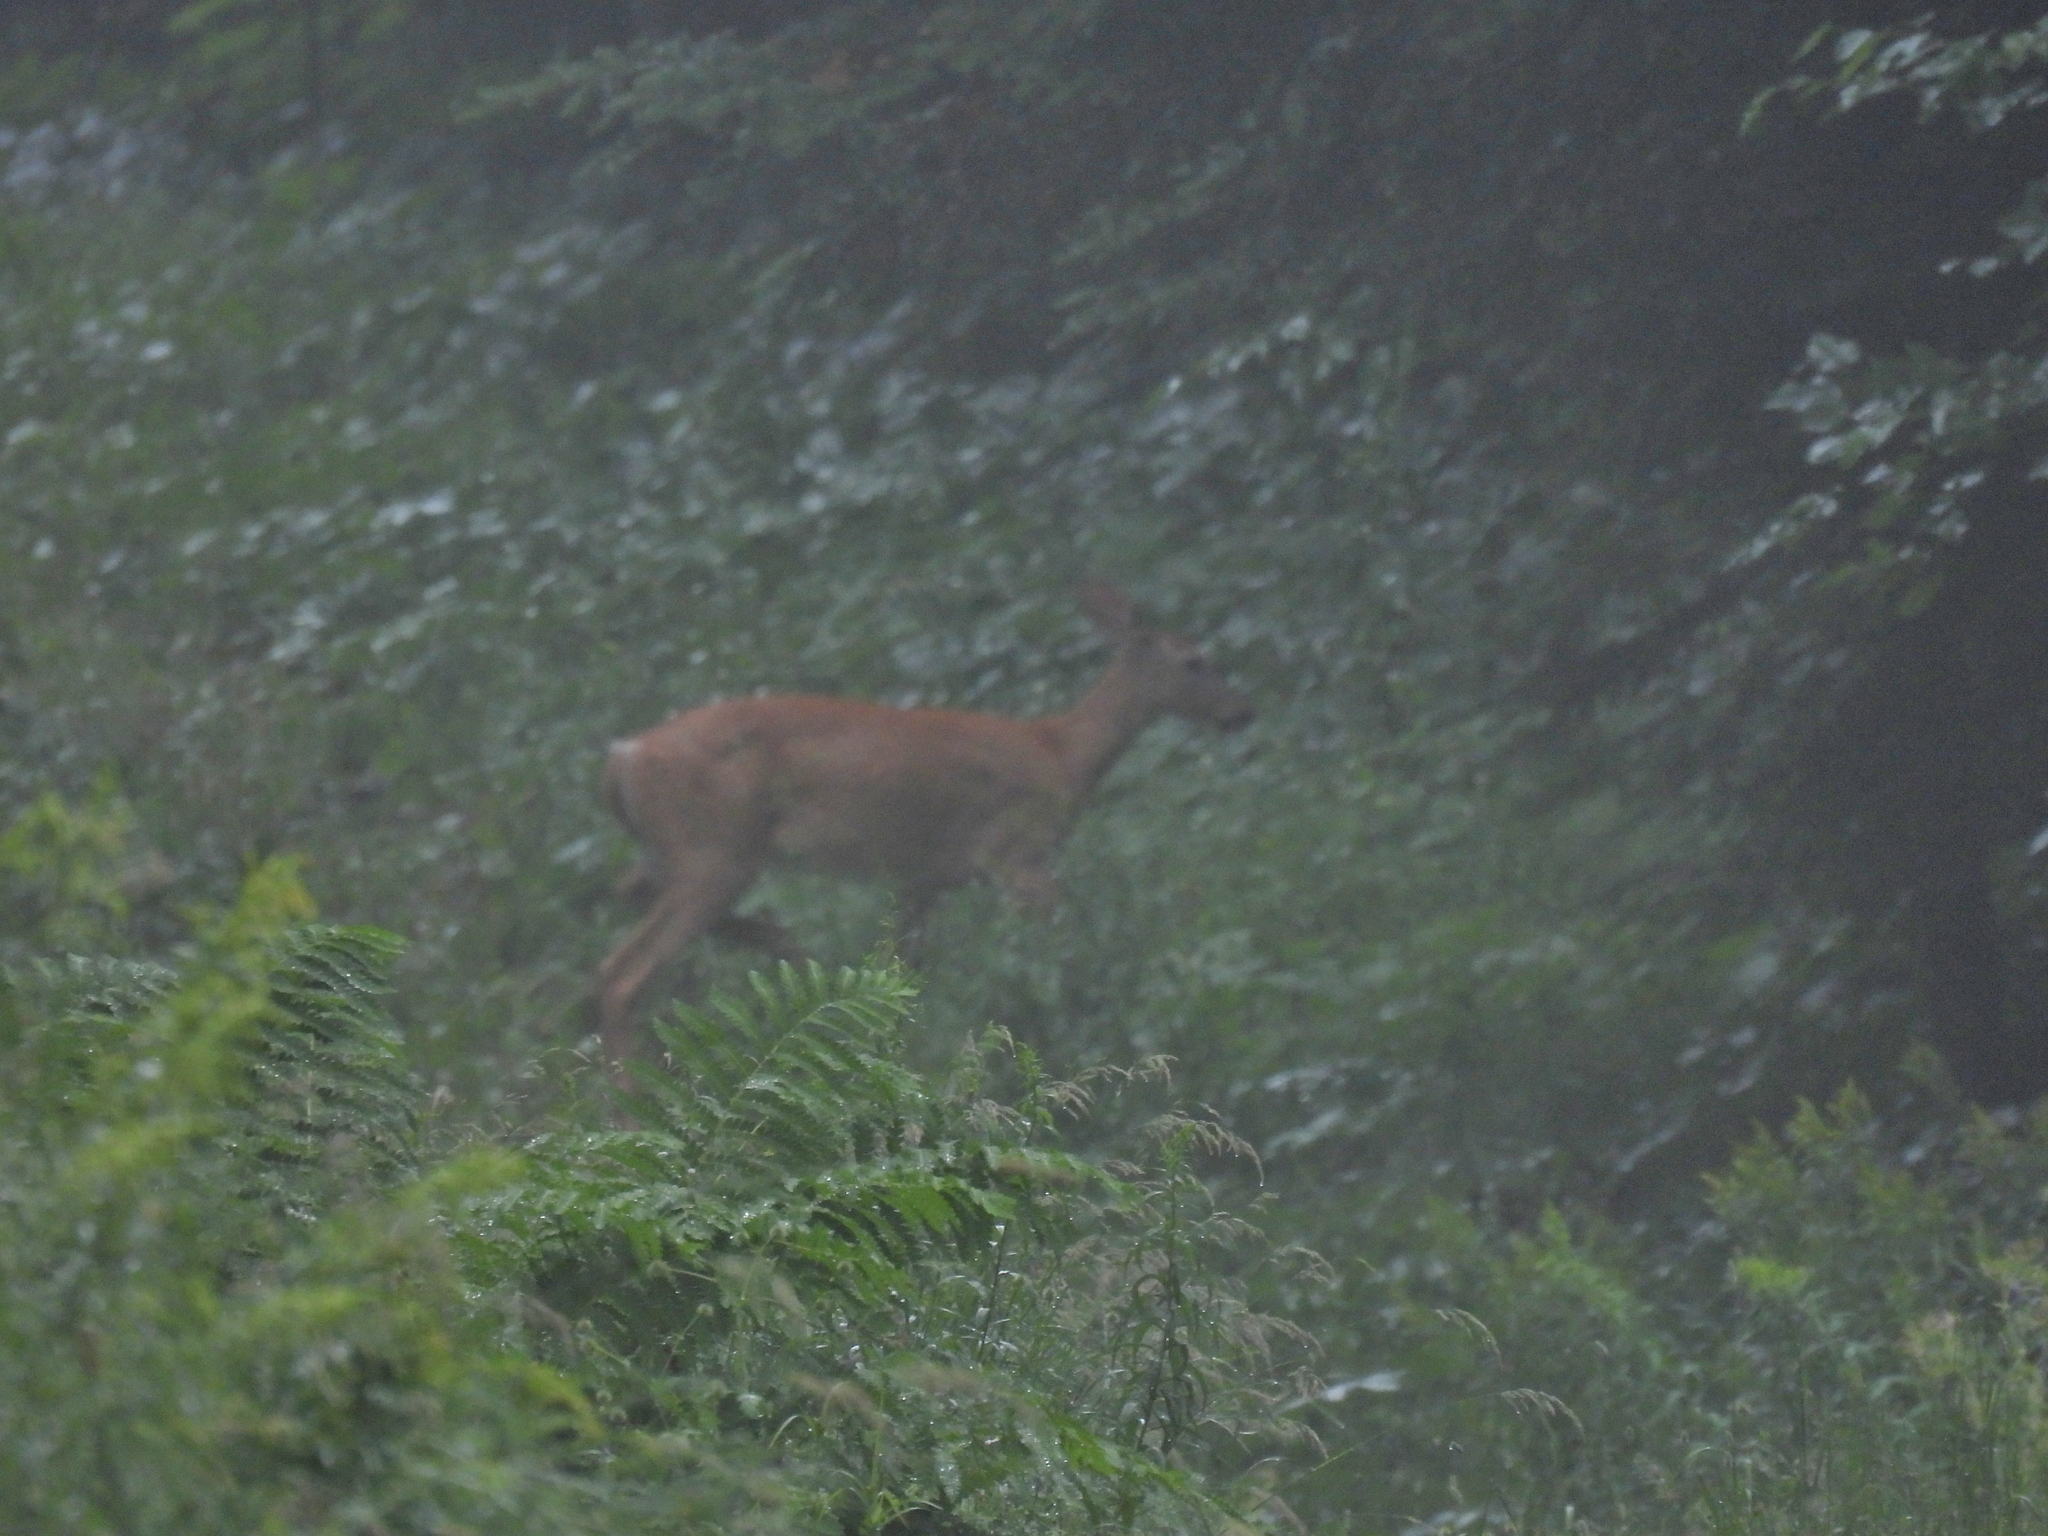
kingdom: Animalia
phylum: Chordata
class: Mammalia
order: Artiodactyla
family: Cervidae
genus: Odocoileus
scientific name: Odocoileus virginianus
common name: White-tailed deer
